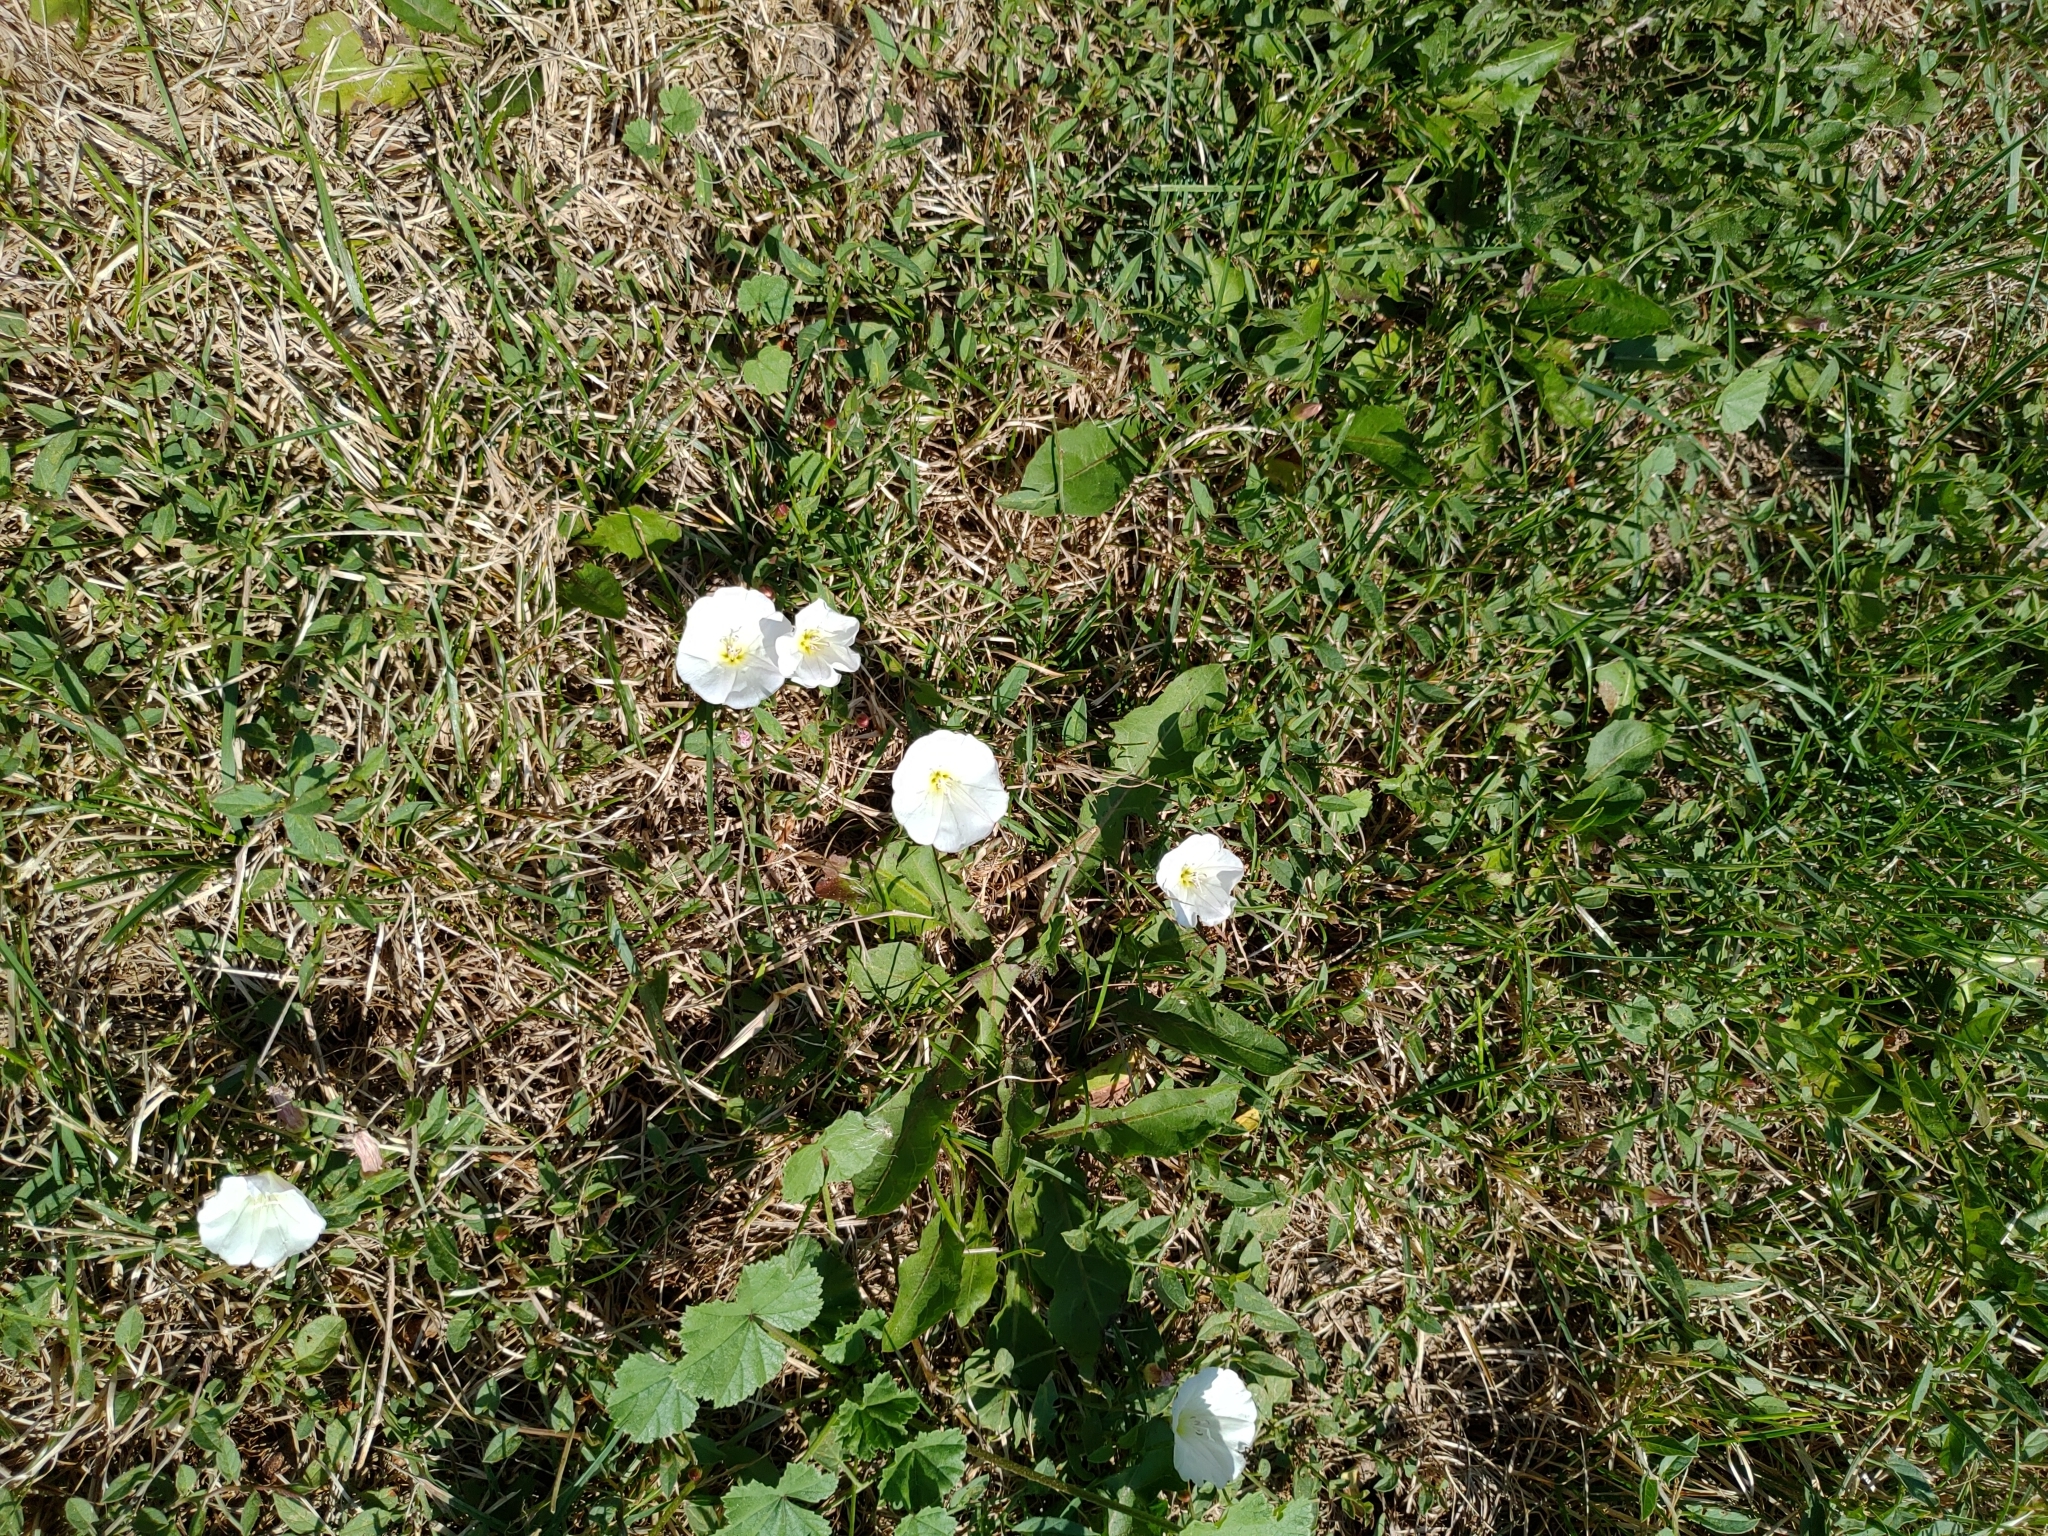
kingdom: Plantae
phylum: Tracheophyta
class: Magnoliopsida
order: Solanales
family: Convolvulaceae
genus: Convolvulus
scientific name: Convolvulus arvensis
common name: Field bindweed
